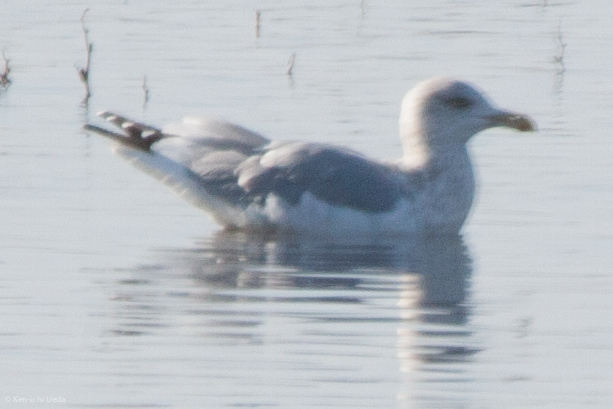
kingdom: Animalia
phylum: Chordata
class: Aves
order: Charadriiformes
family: Laridae
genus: Larus
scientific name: Larus argentatus
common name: Herring gull
